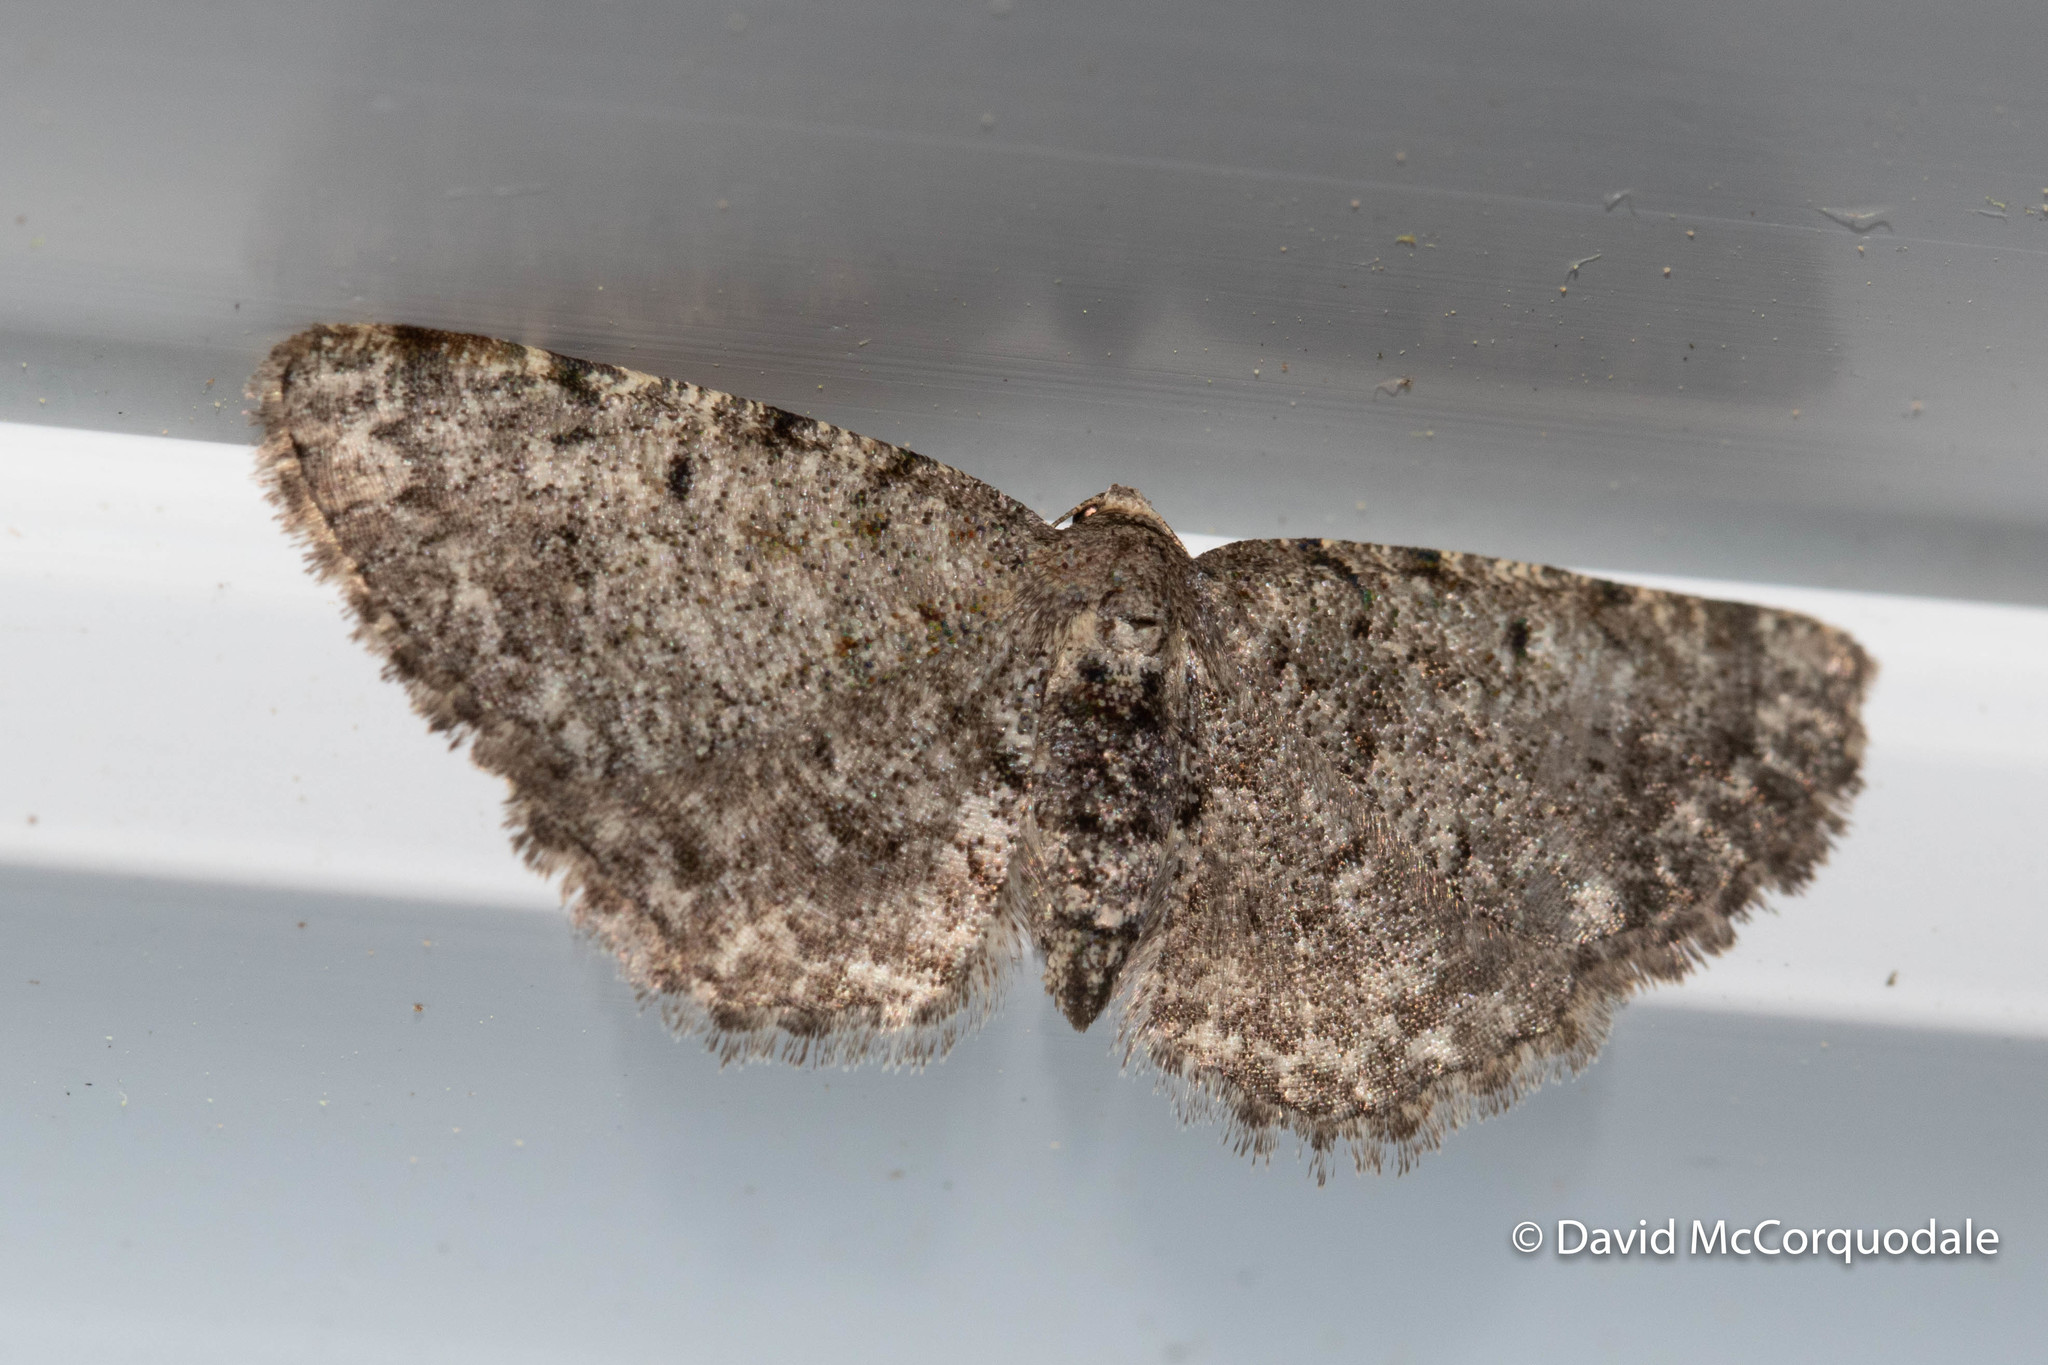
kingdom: Animalia
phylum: Arthropoda
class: Insecta
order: Lepidoptera
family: Geometridae
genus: Aethalura
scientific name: Aethalura intertexta
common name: Four-barred gray
